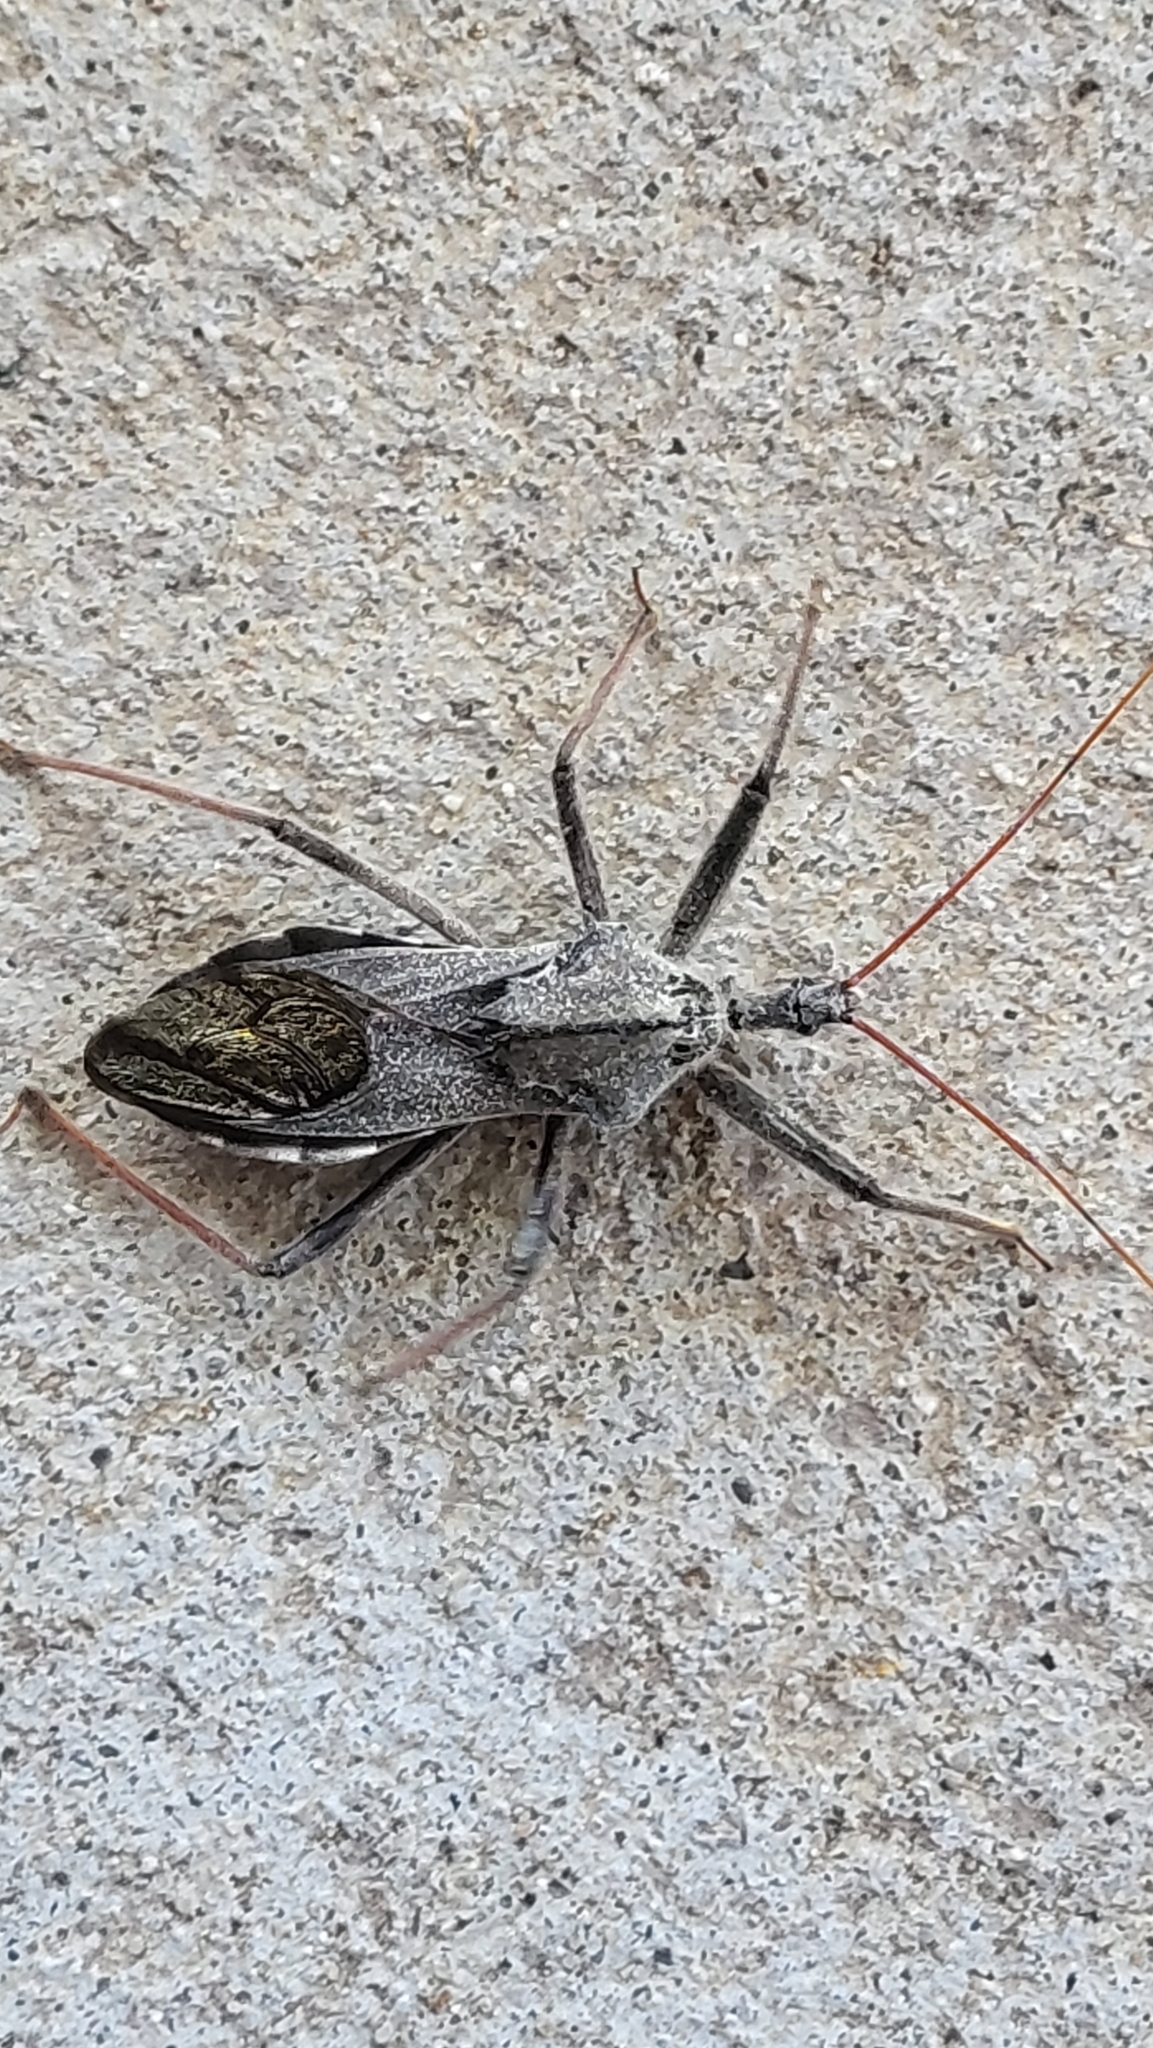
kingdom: Animalia
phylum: Arthropoda
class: Insecta
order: Hemiptera
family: Reduviidae
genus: Arilus
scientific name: Arilus cristatus
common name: North american wheel bug
